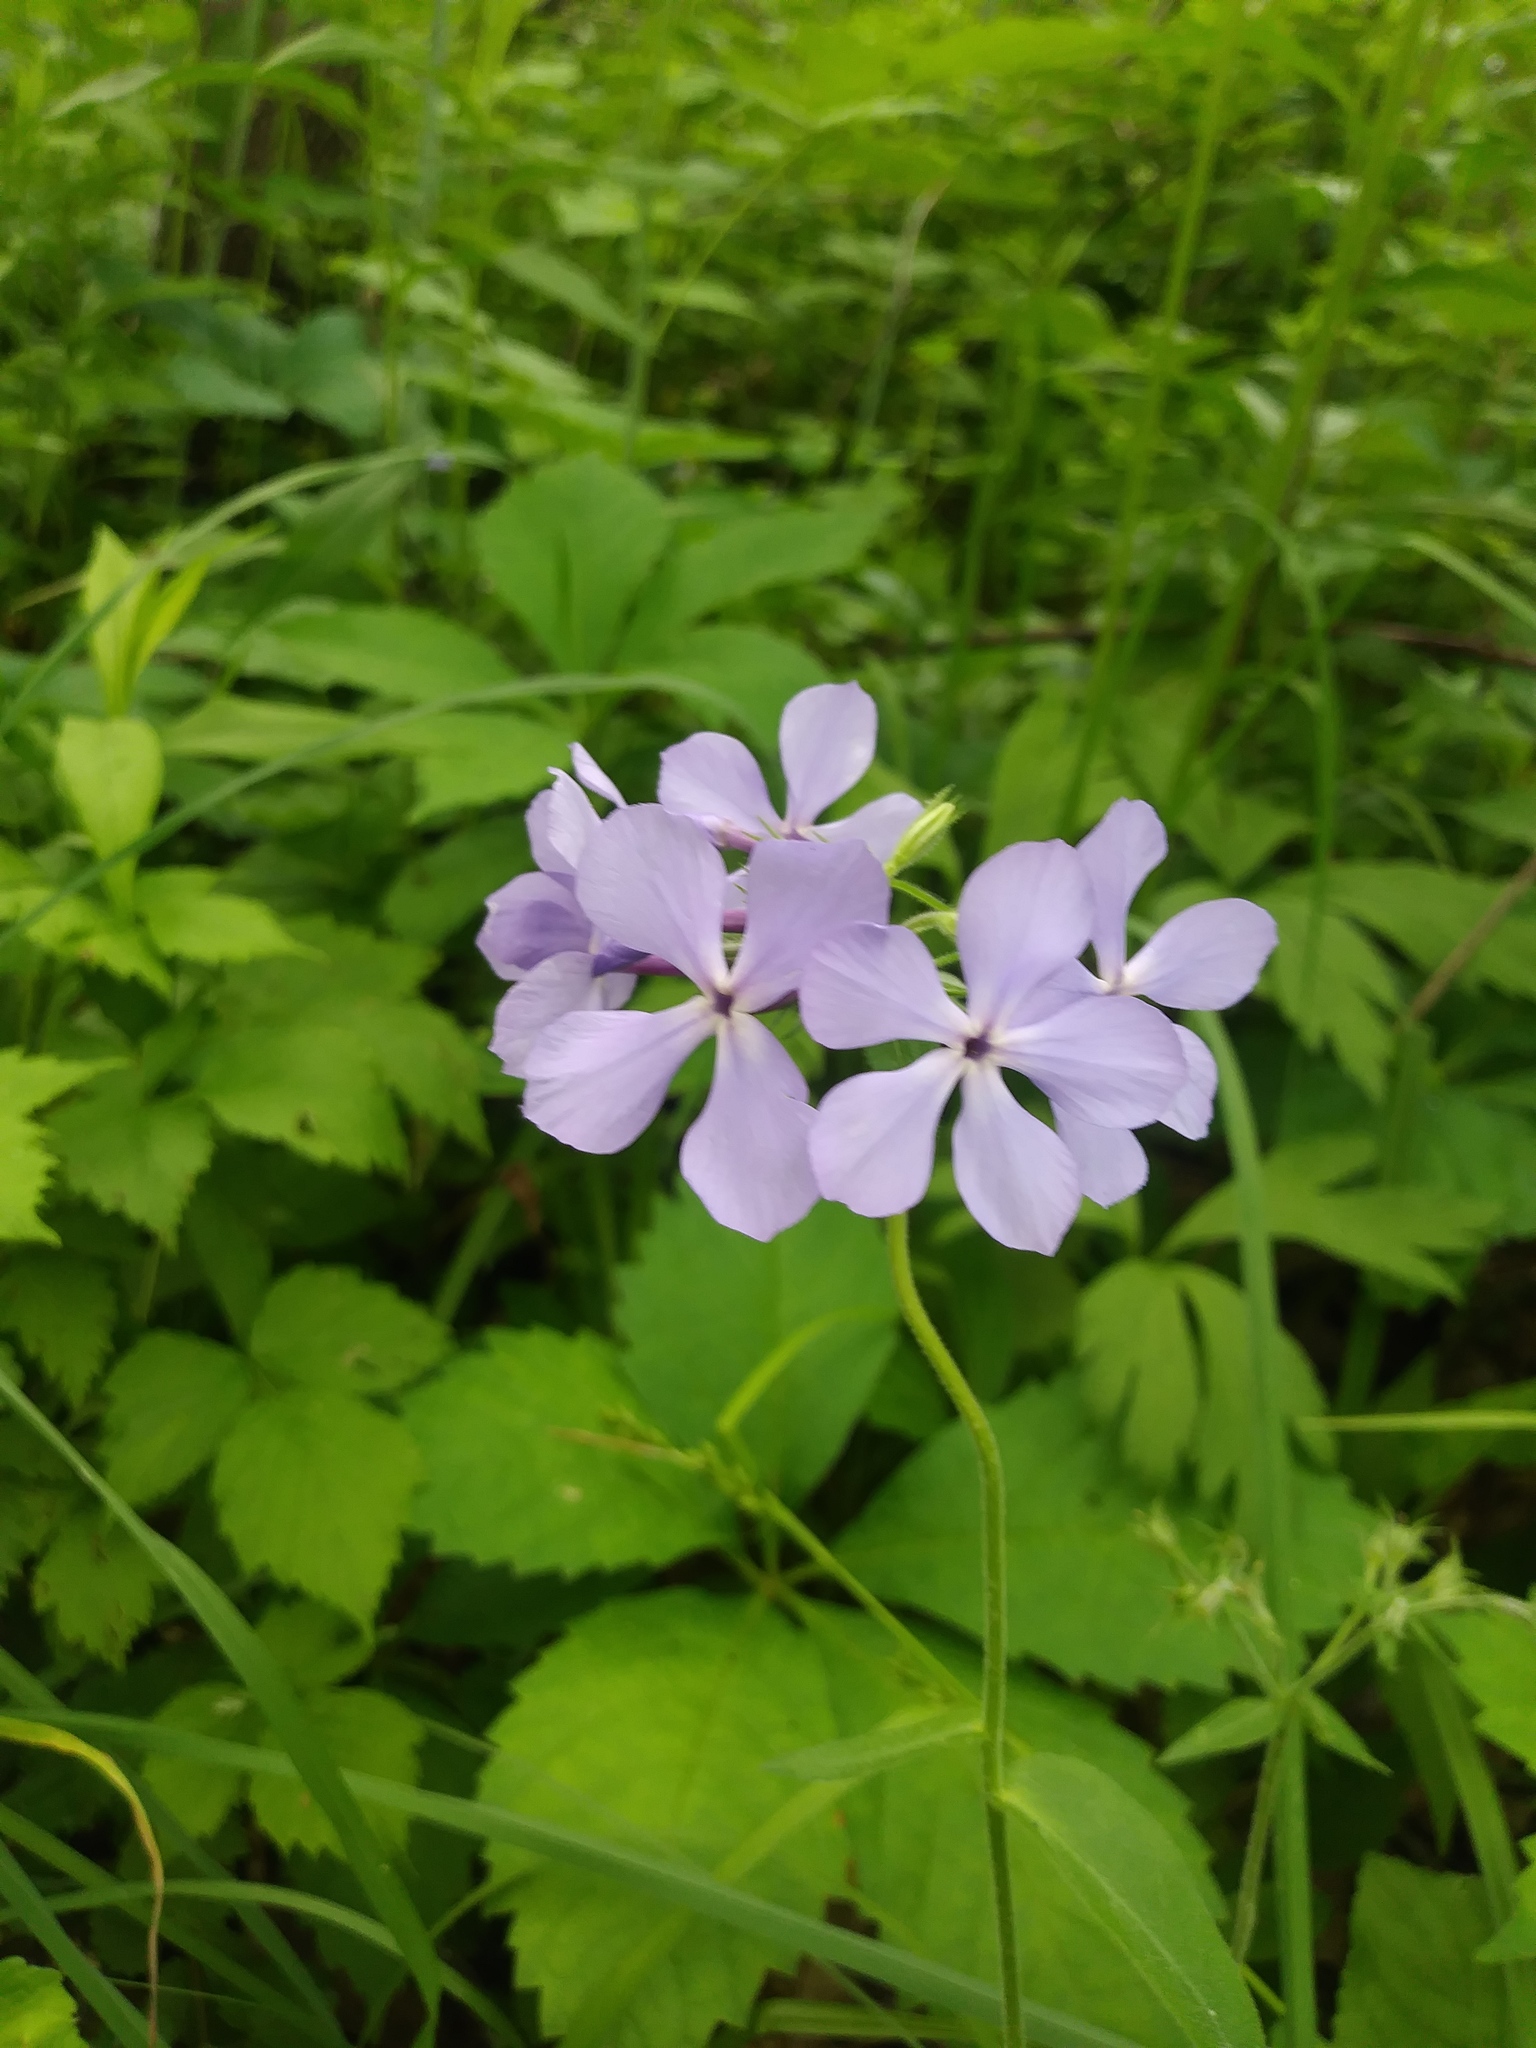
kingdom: Plantae
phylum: Tracheophyta
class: Magnoliopsida
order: Ericales
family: Polemoniaceae
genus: Phlox
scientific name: Phlox divaricata
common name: Blue phlox
